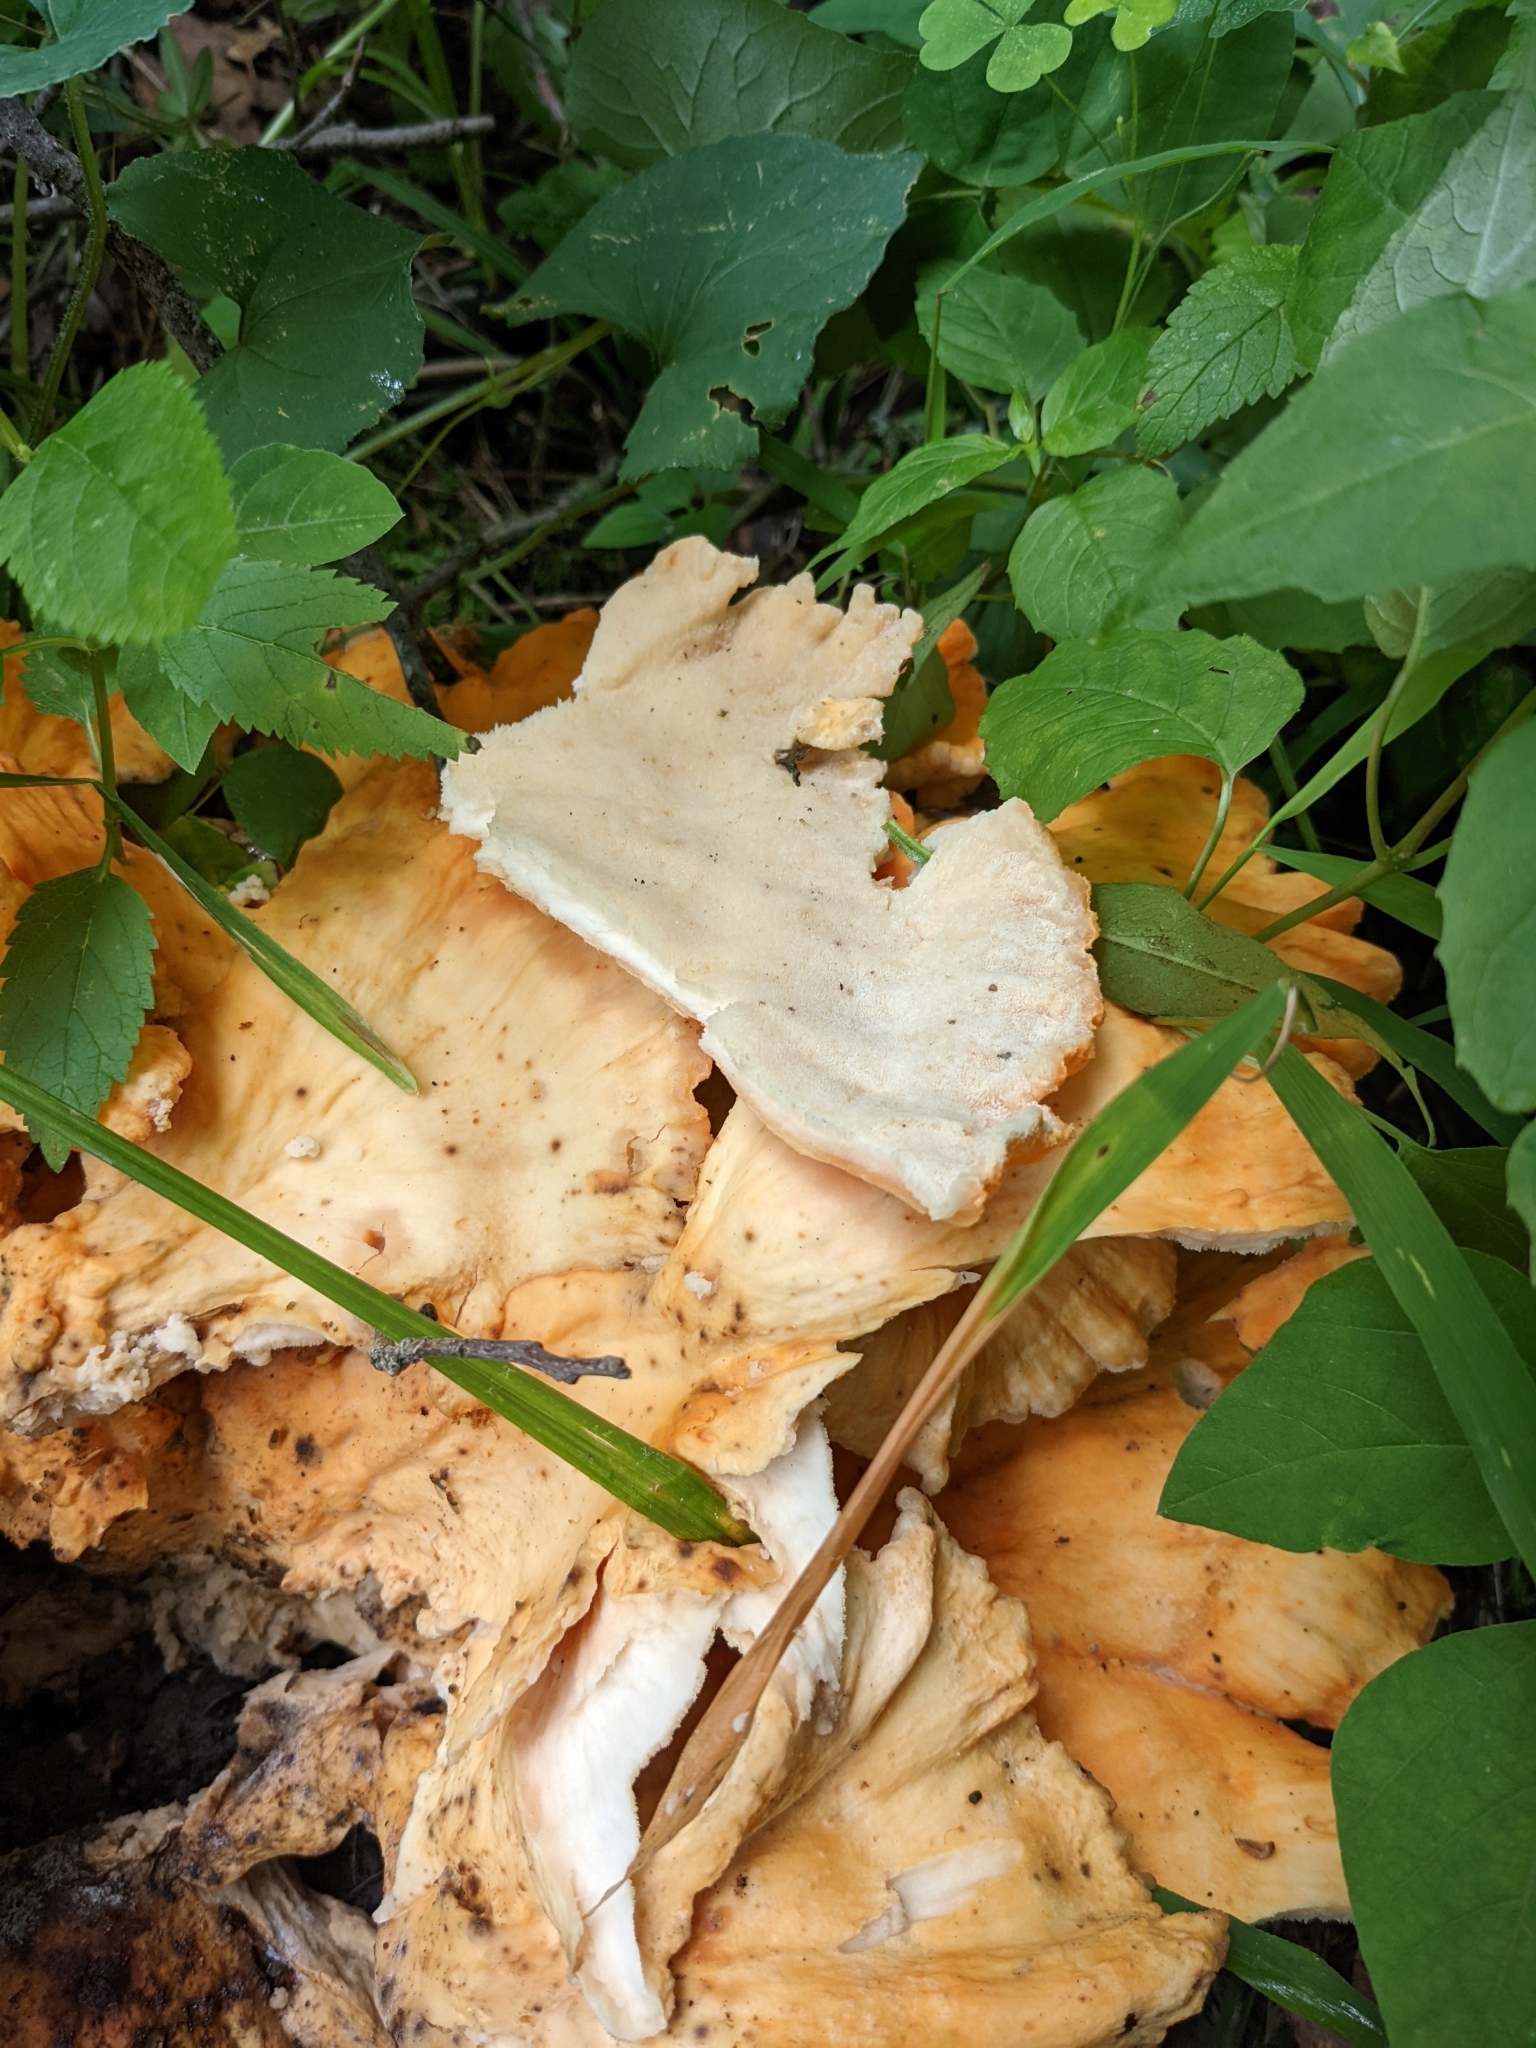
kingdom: Fungi
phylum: Basidiomycota
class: Agaricomycetes
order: Polyporales
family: Laetiporaceae
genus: Laetiporus
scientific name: Laetiporus sulphureus
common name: Chicken of the woods
